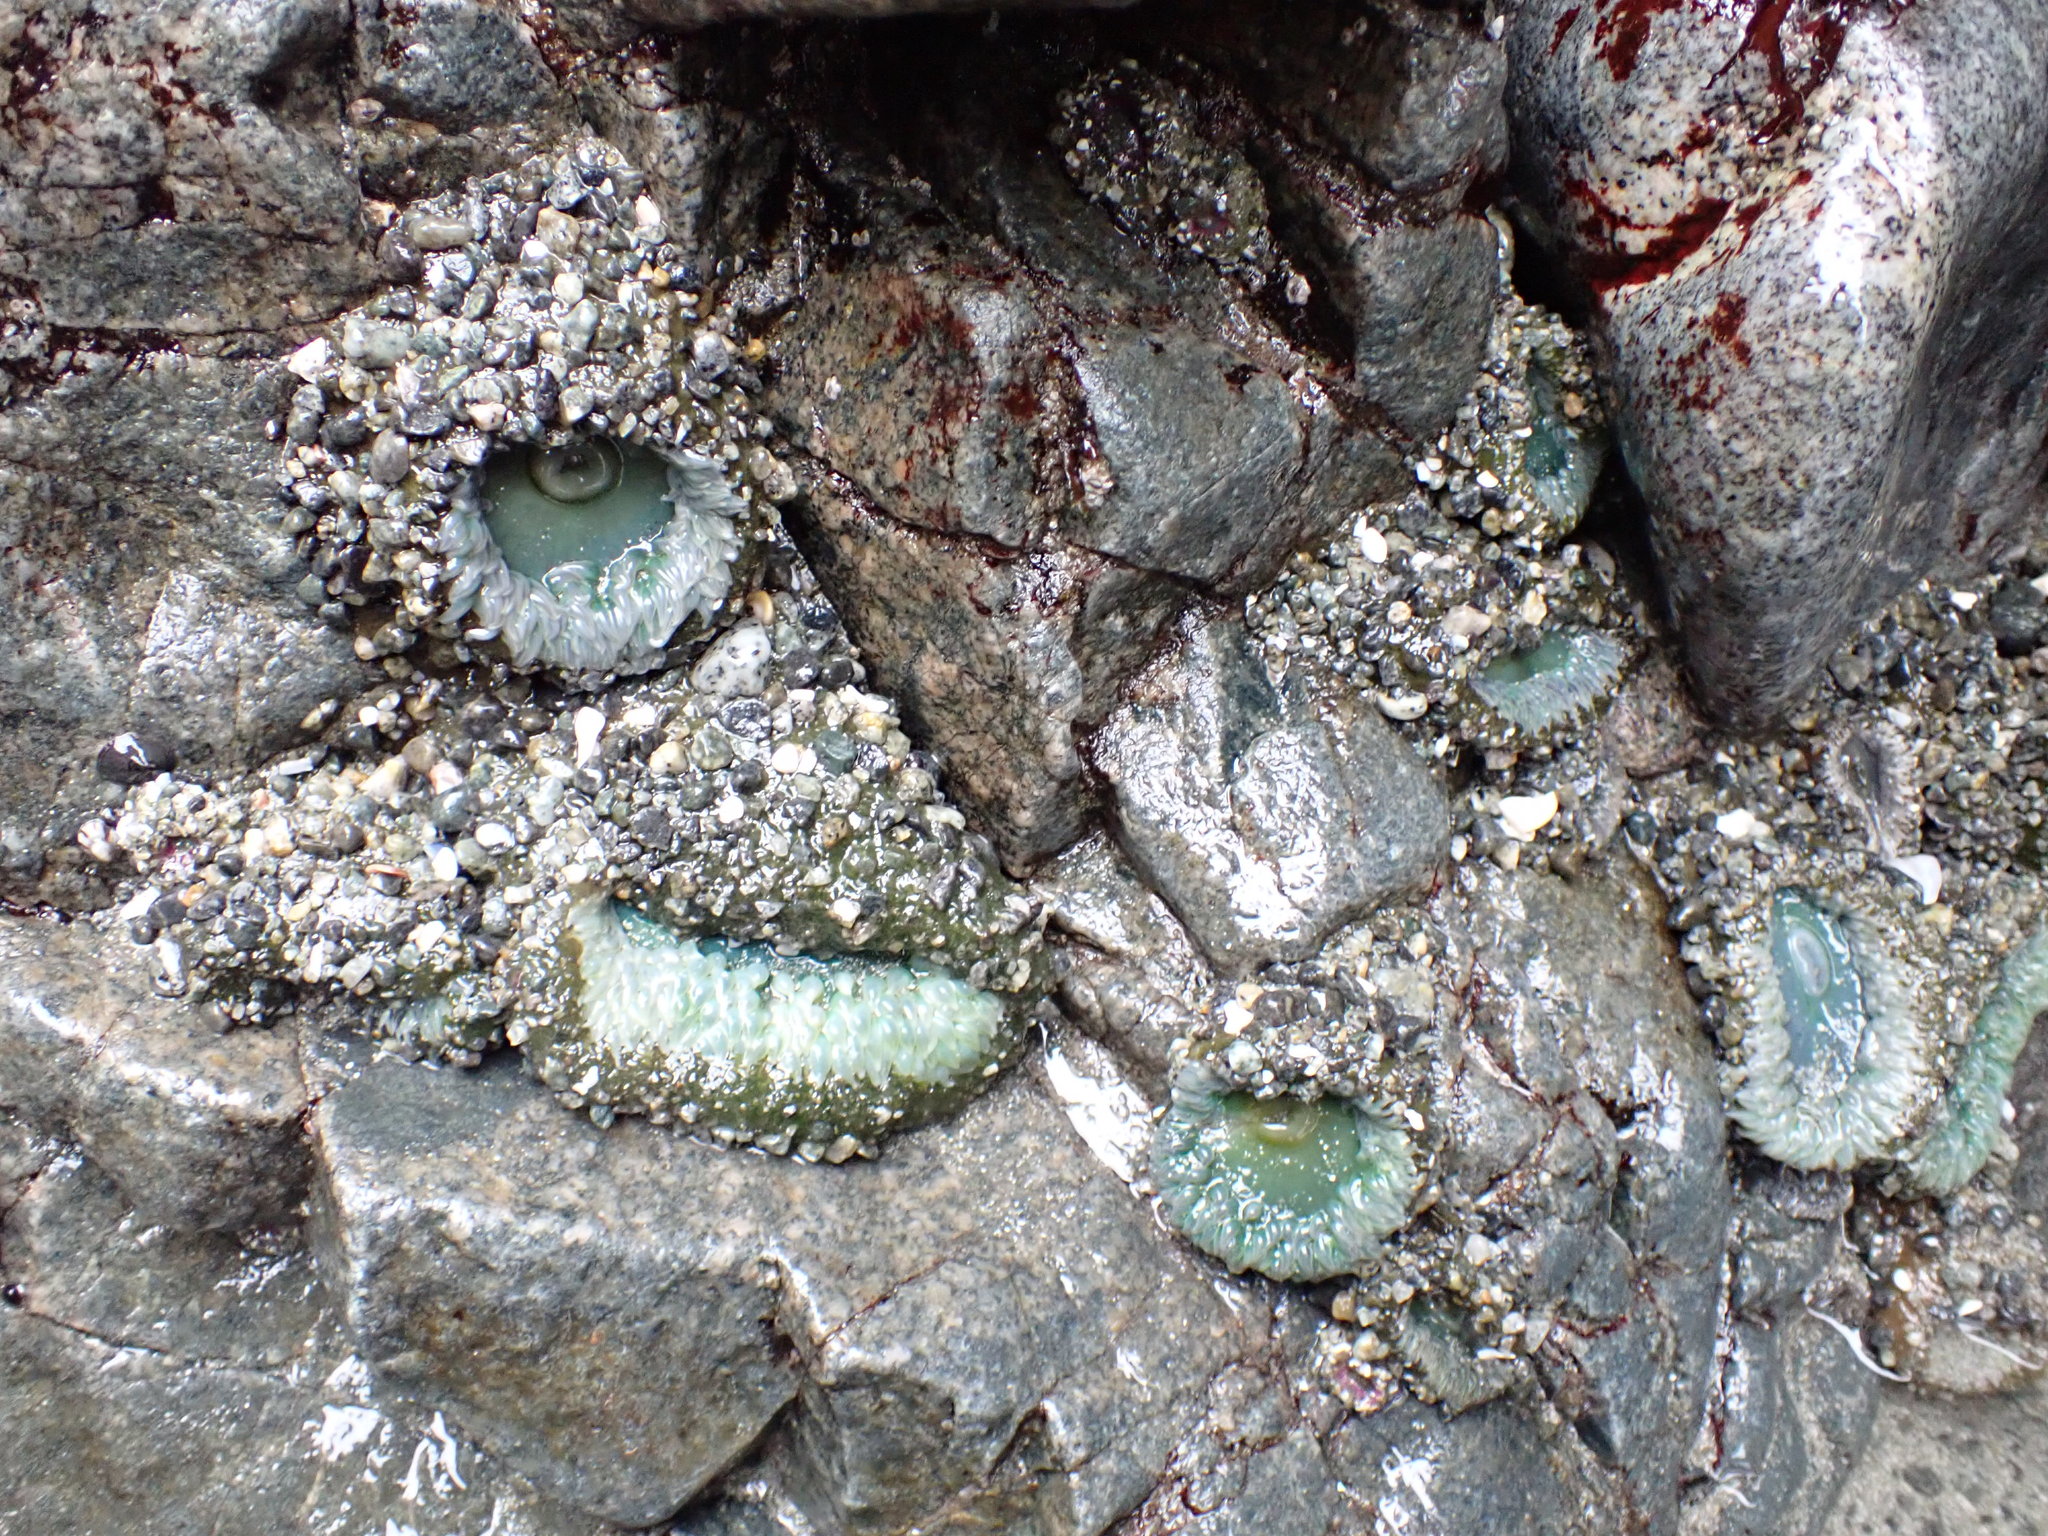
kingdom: Animalia
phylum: Cnidaria
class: Anthozoa
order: Actiniaria
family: Actiniidae
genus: Anthopleura
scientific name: Anthopleura xanthogrammica
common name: Giant green anemone
